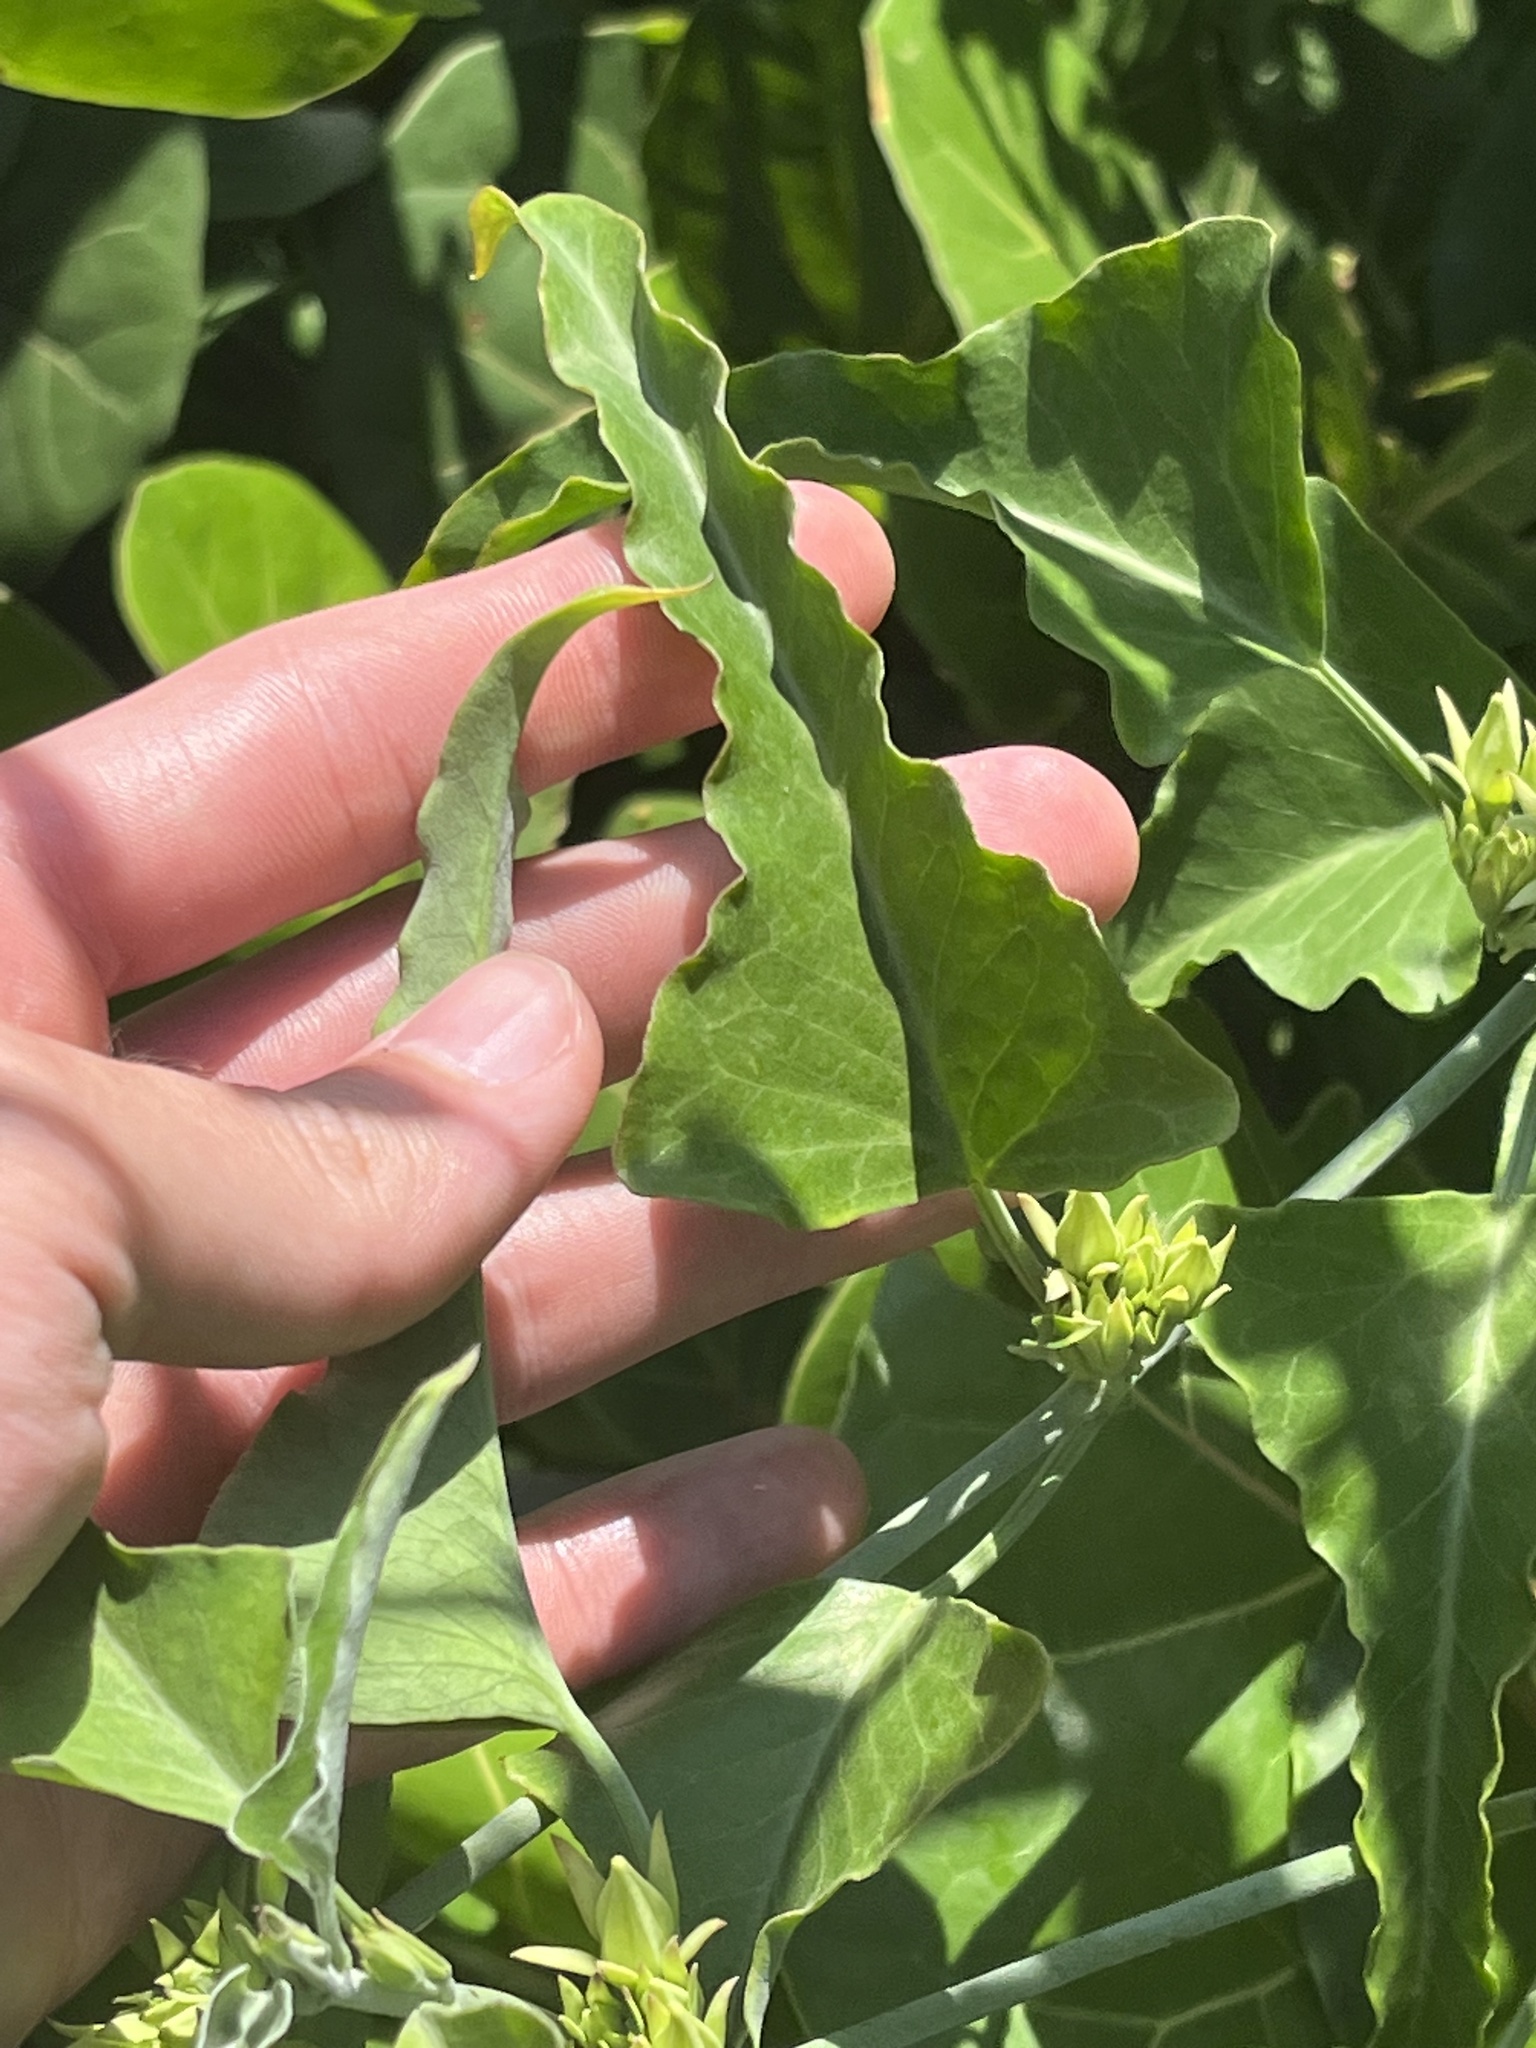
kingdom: Plantae
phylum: Tracheophyta
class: Magnoliopsida
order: Gentianales
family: Apocynaceae
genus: Araujia
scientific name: Araujia odorata
